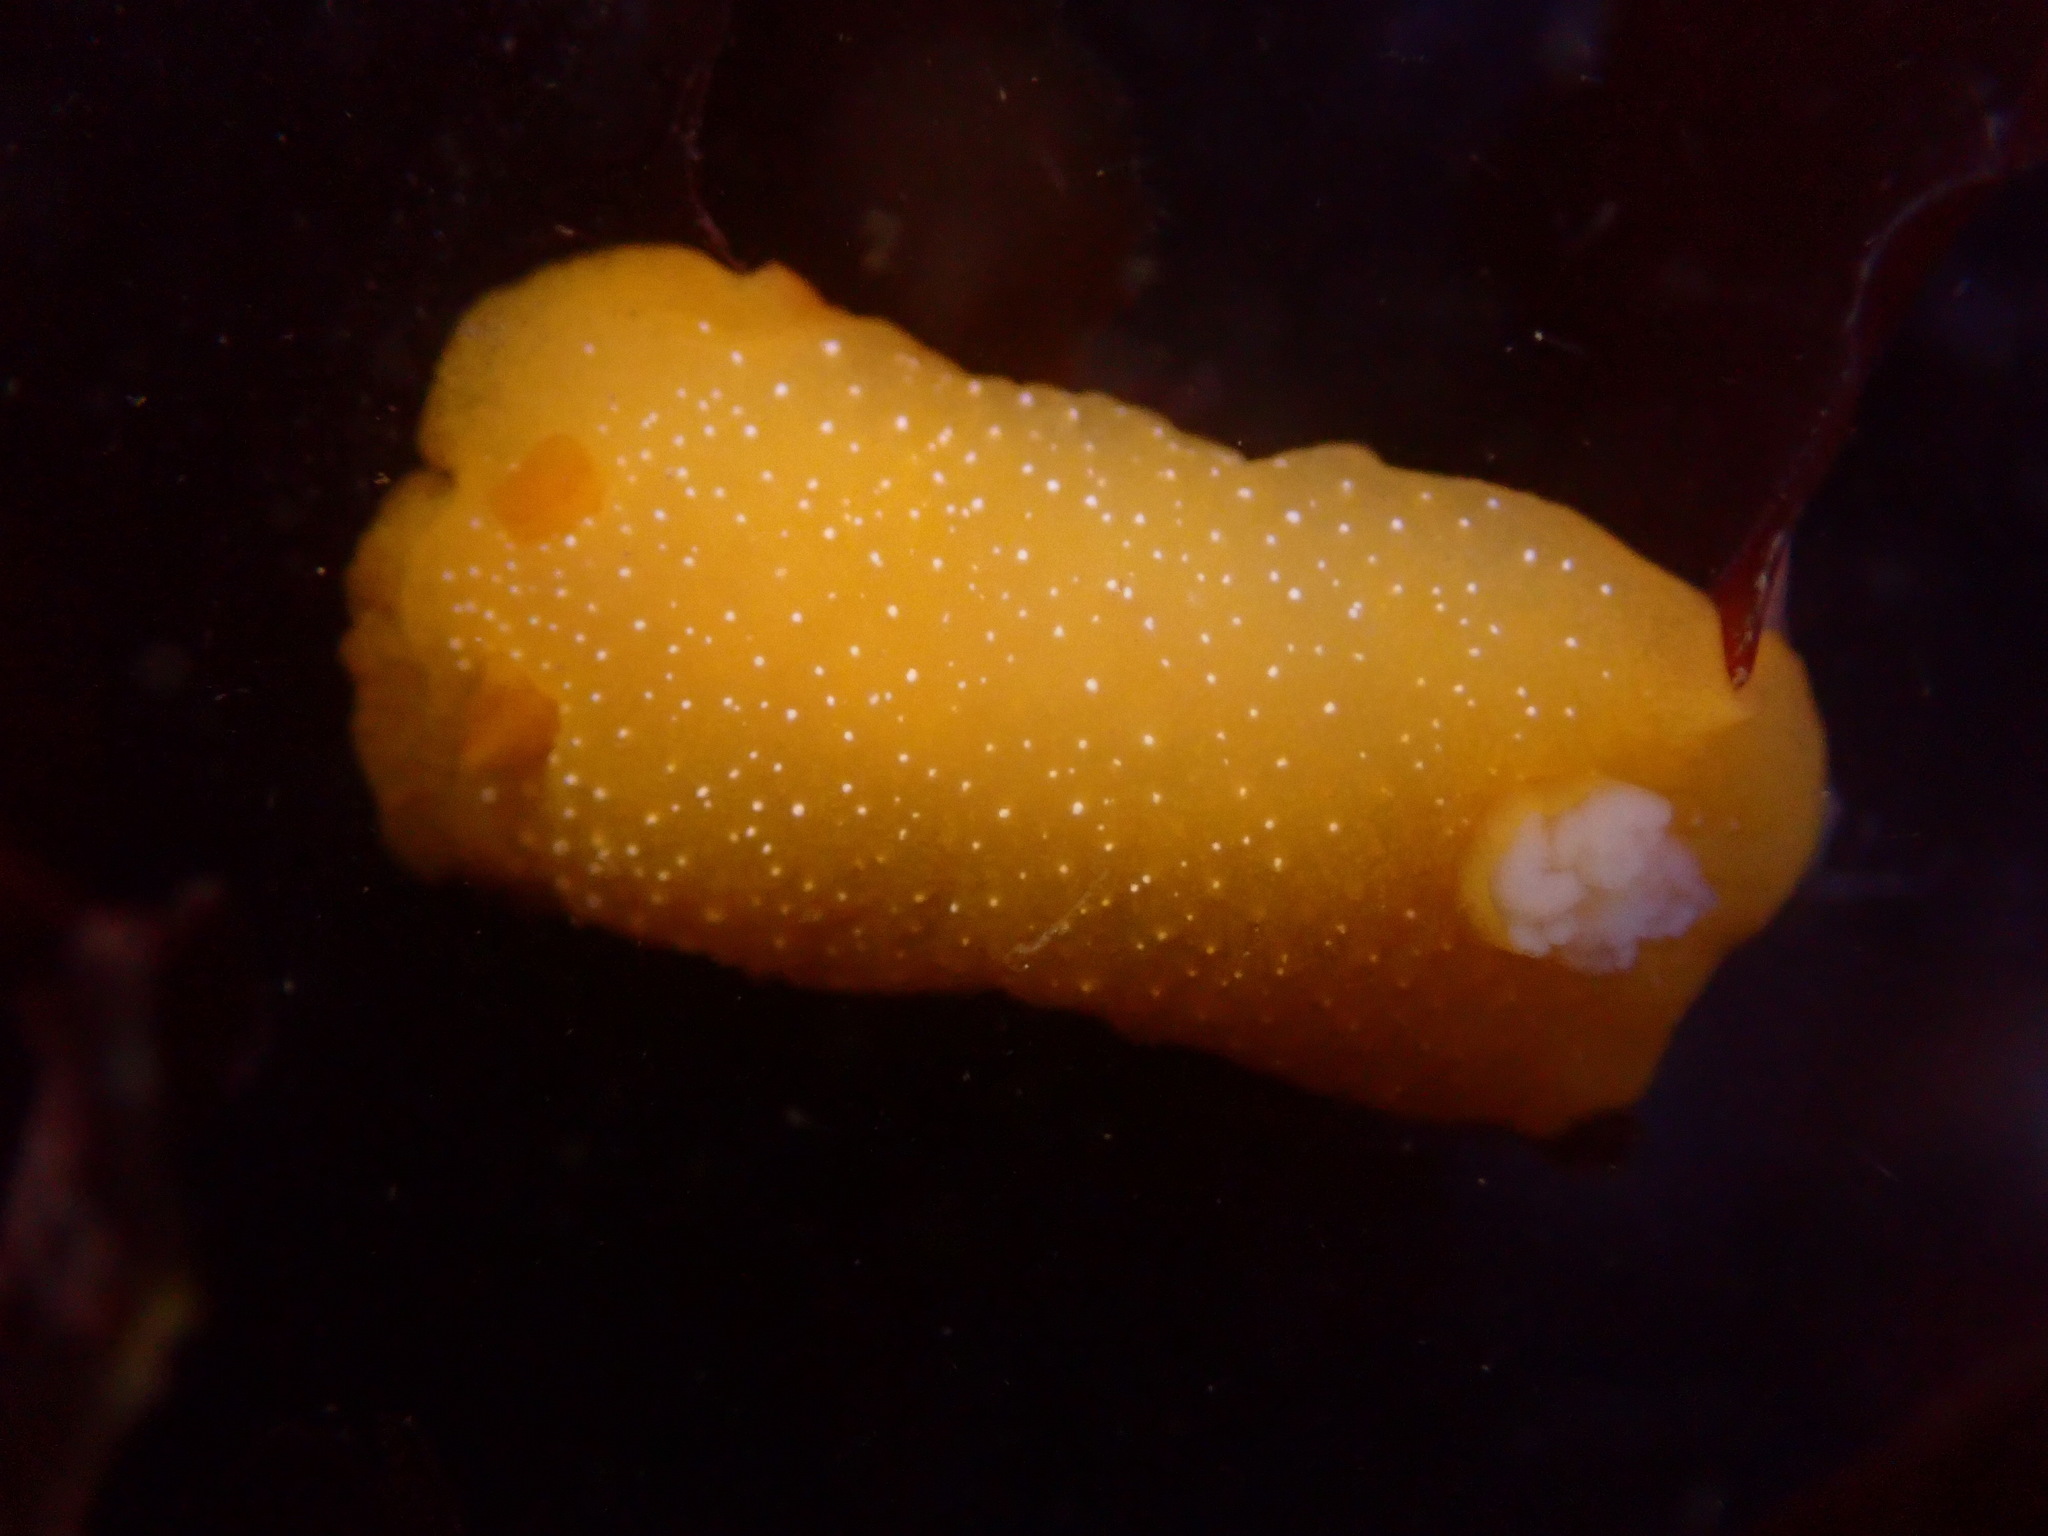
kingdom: Animalia
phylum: Mollusca
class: Gastropoda
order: Nudibranchia
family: Dendrodorididae
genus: Doriopsilla
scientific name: Doriopsilla fulva
